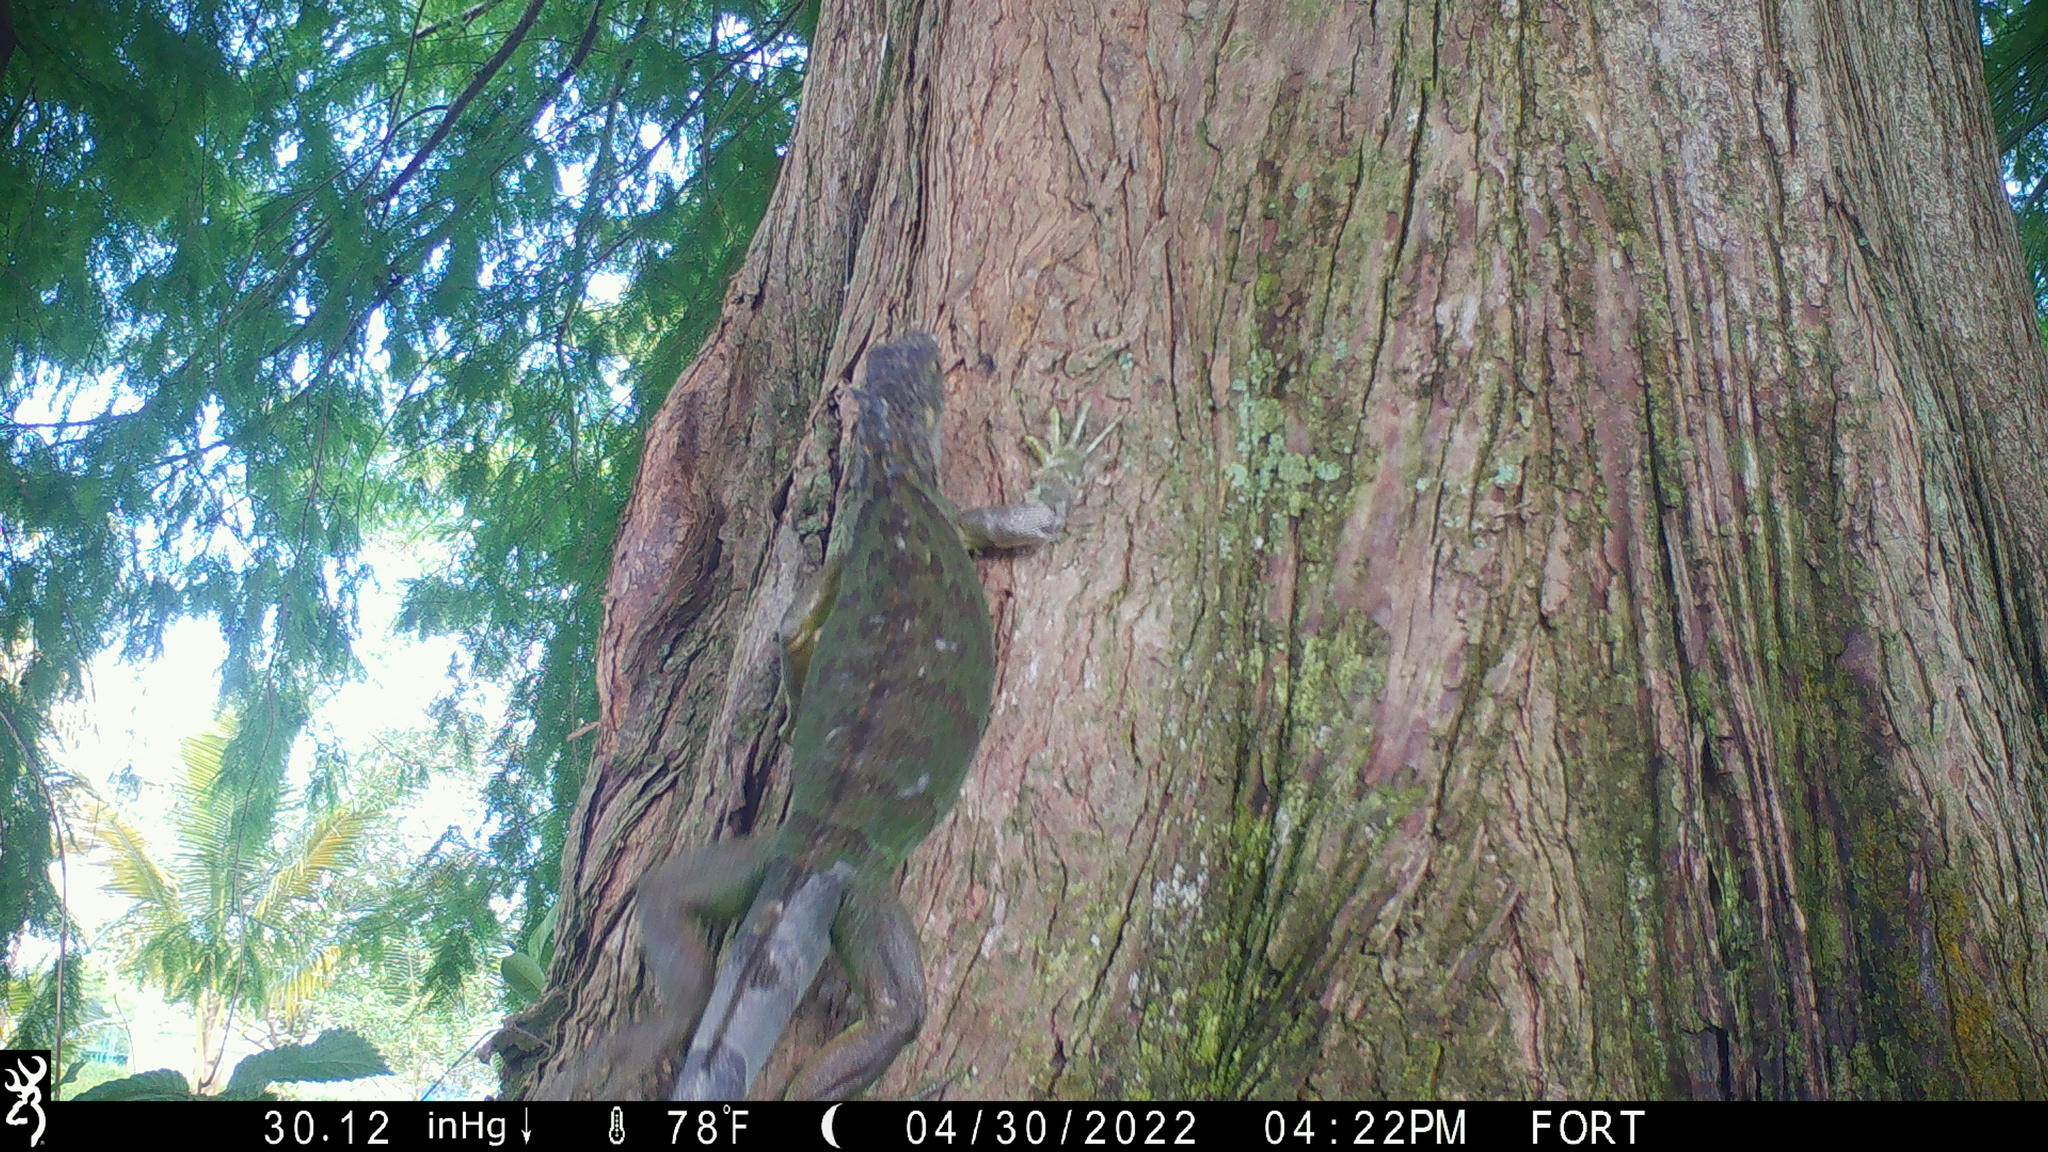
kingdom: Animalia
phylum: Chordata
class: Squamata
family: Iguanidae
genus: Iguana
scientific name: Iguana iguana
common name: Green iguana
